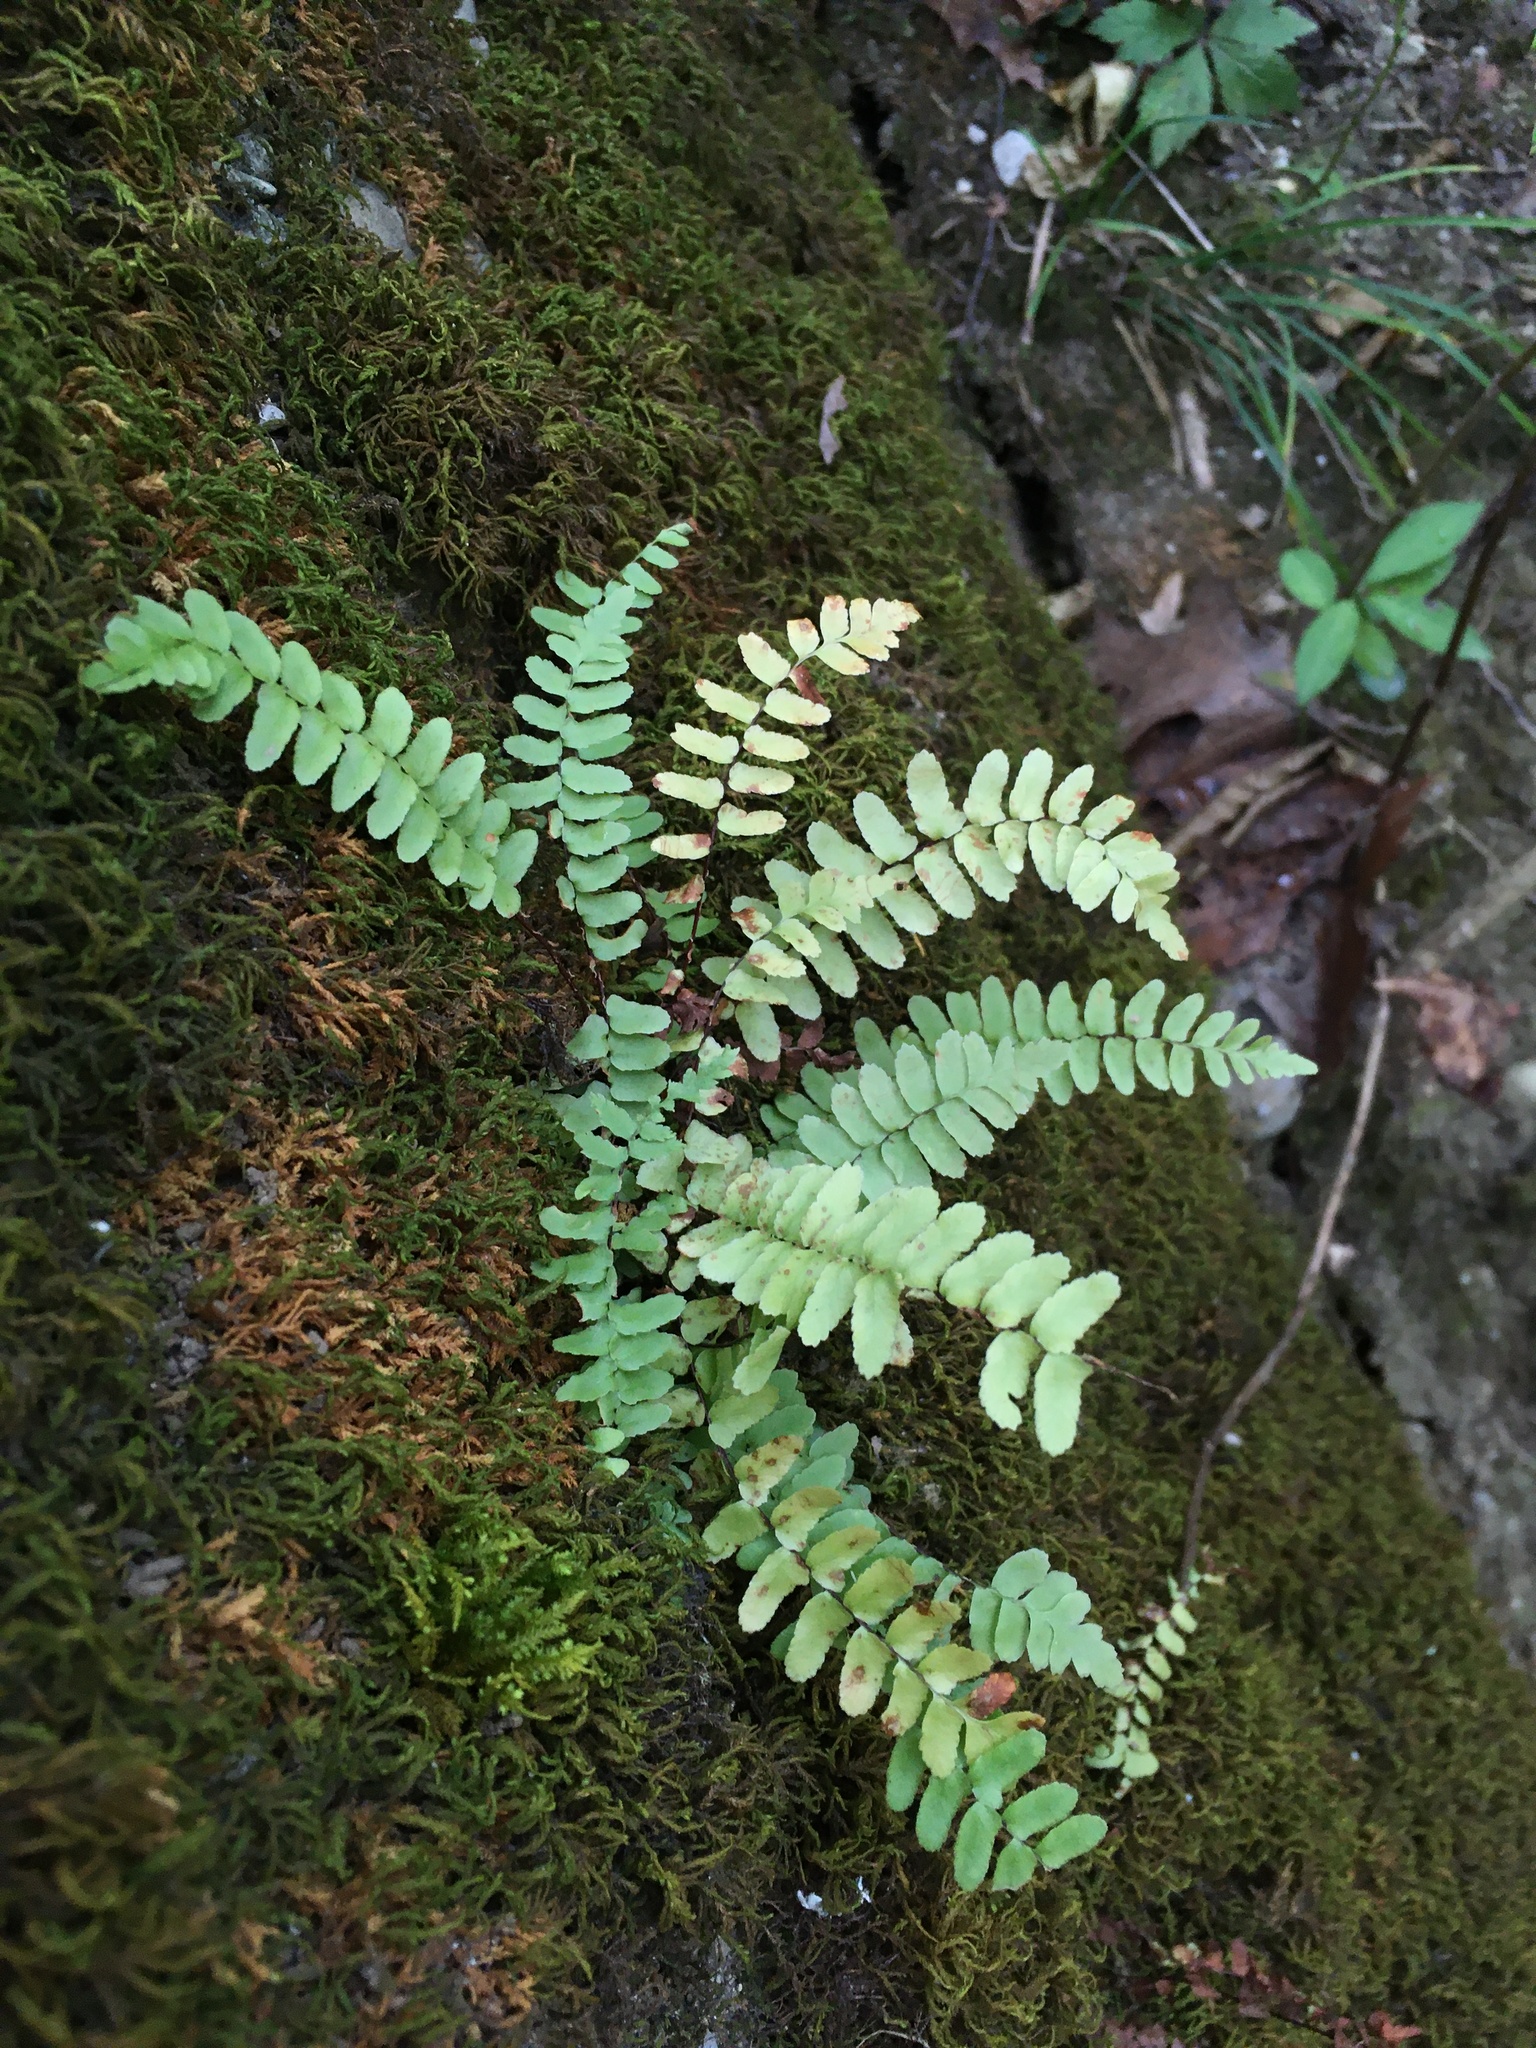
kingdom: Plantae
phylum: Tracheophyta
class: Polypodiopsida
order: Polypodiales
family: Aspleniaceae
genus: Asplenium
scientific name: Asplenium platyneuron
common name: Ebony spleenwort
